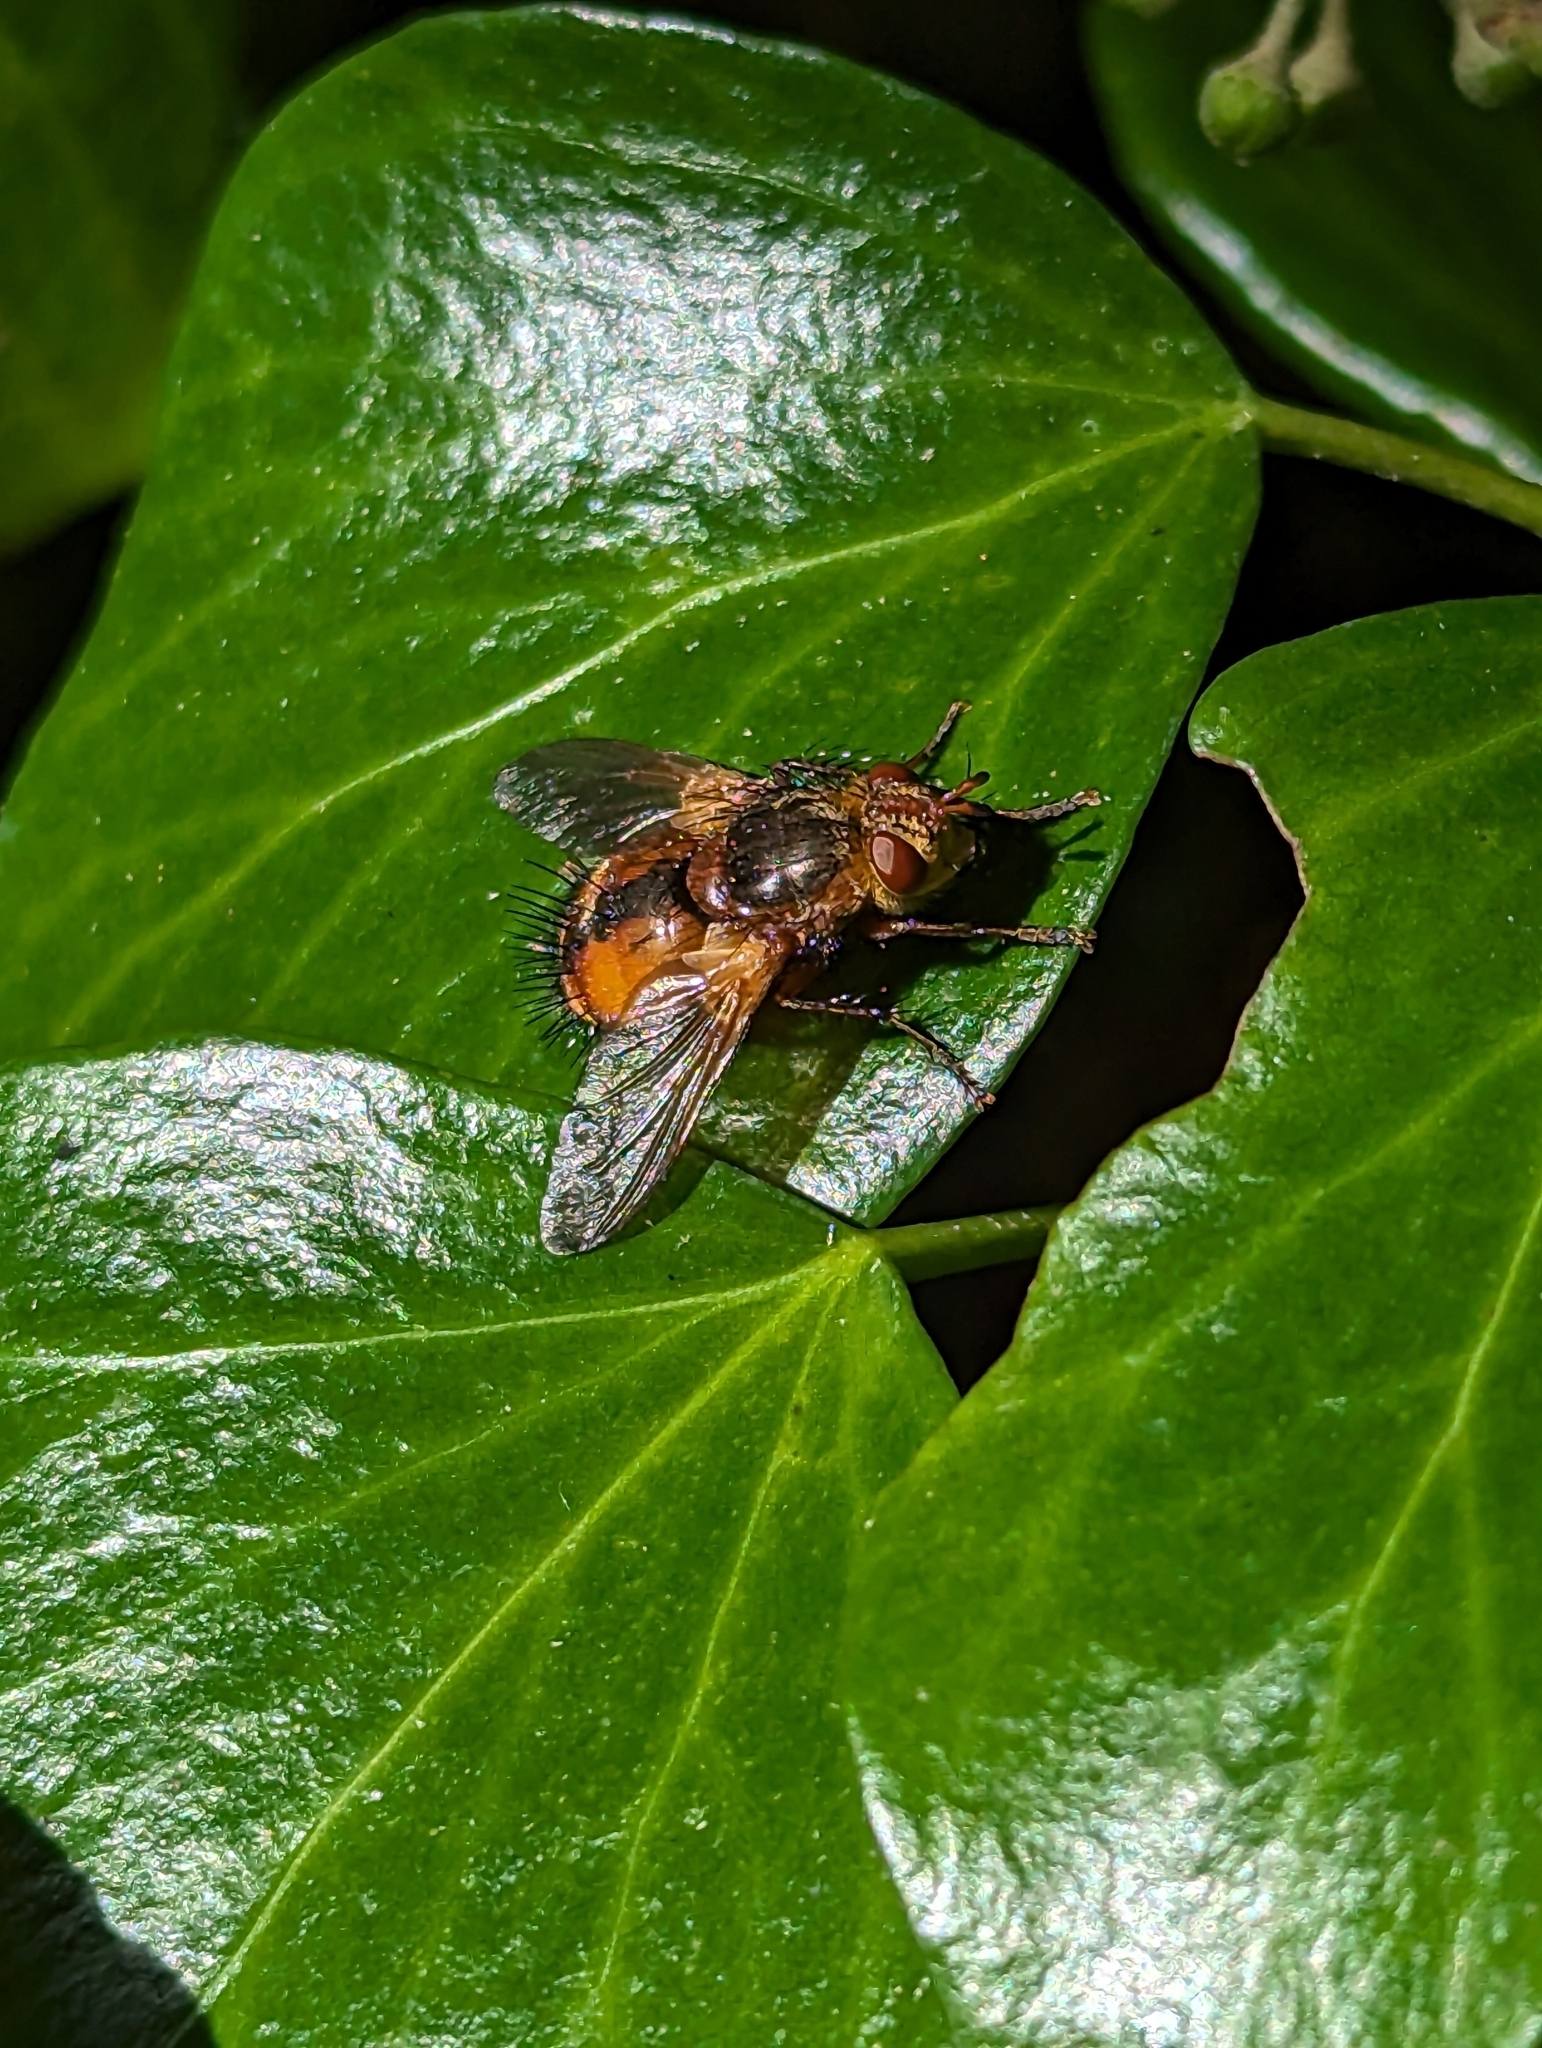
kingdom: Animalia
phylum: Arthropoda
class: Insecta
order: Diptera
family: Tachinidae
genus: Tachina
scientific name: Tachina fera
